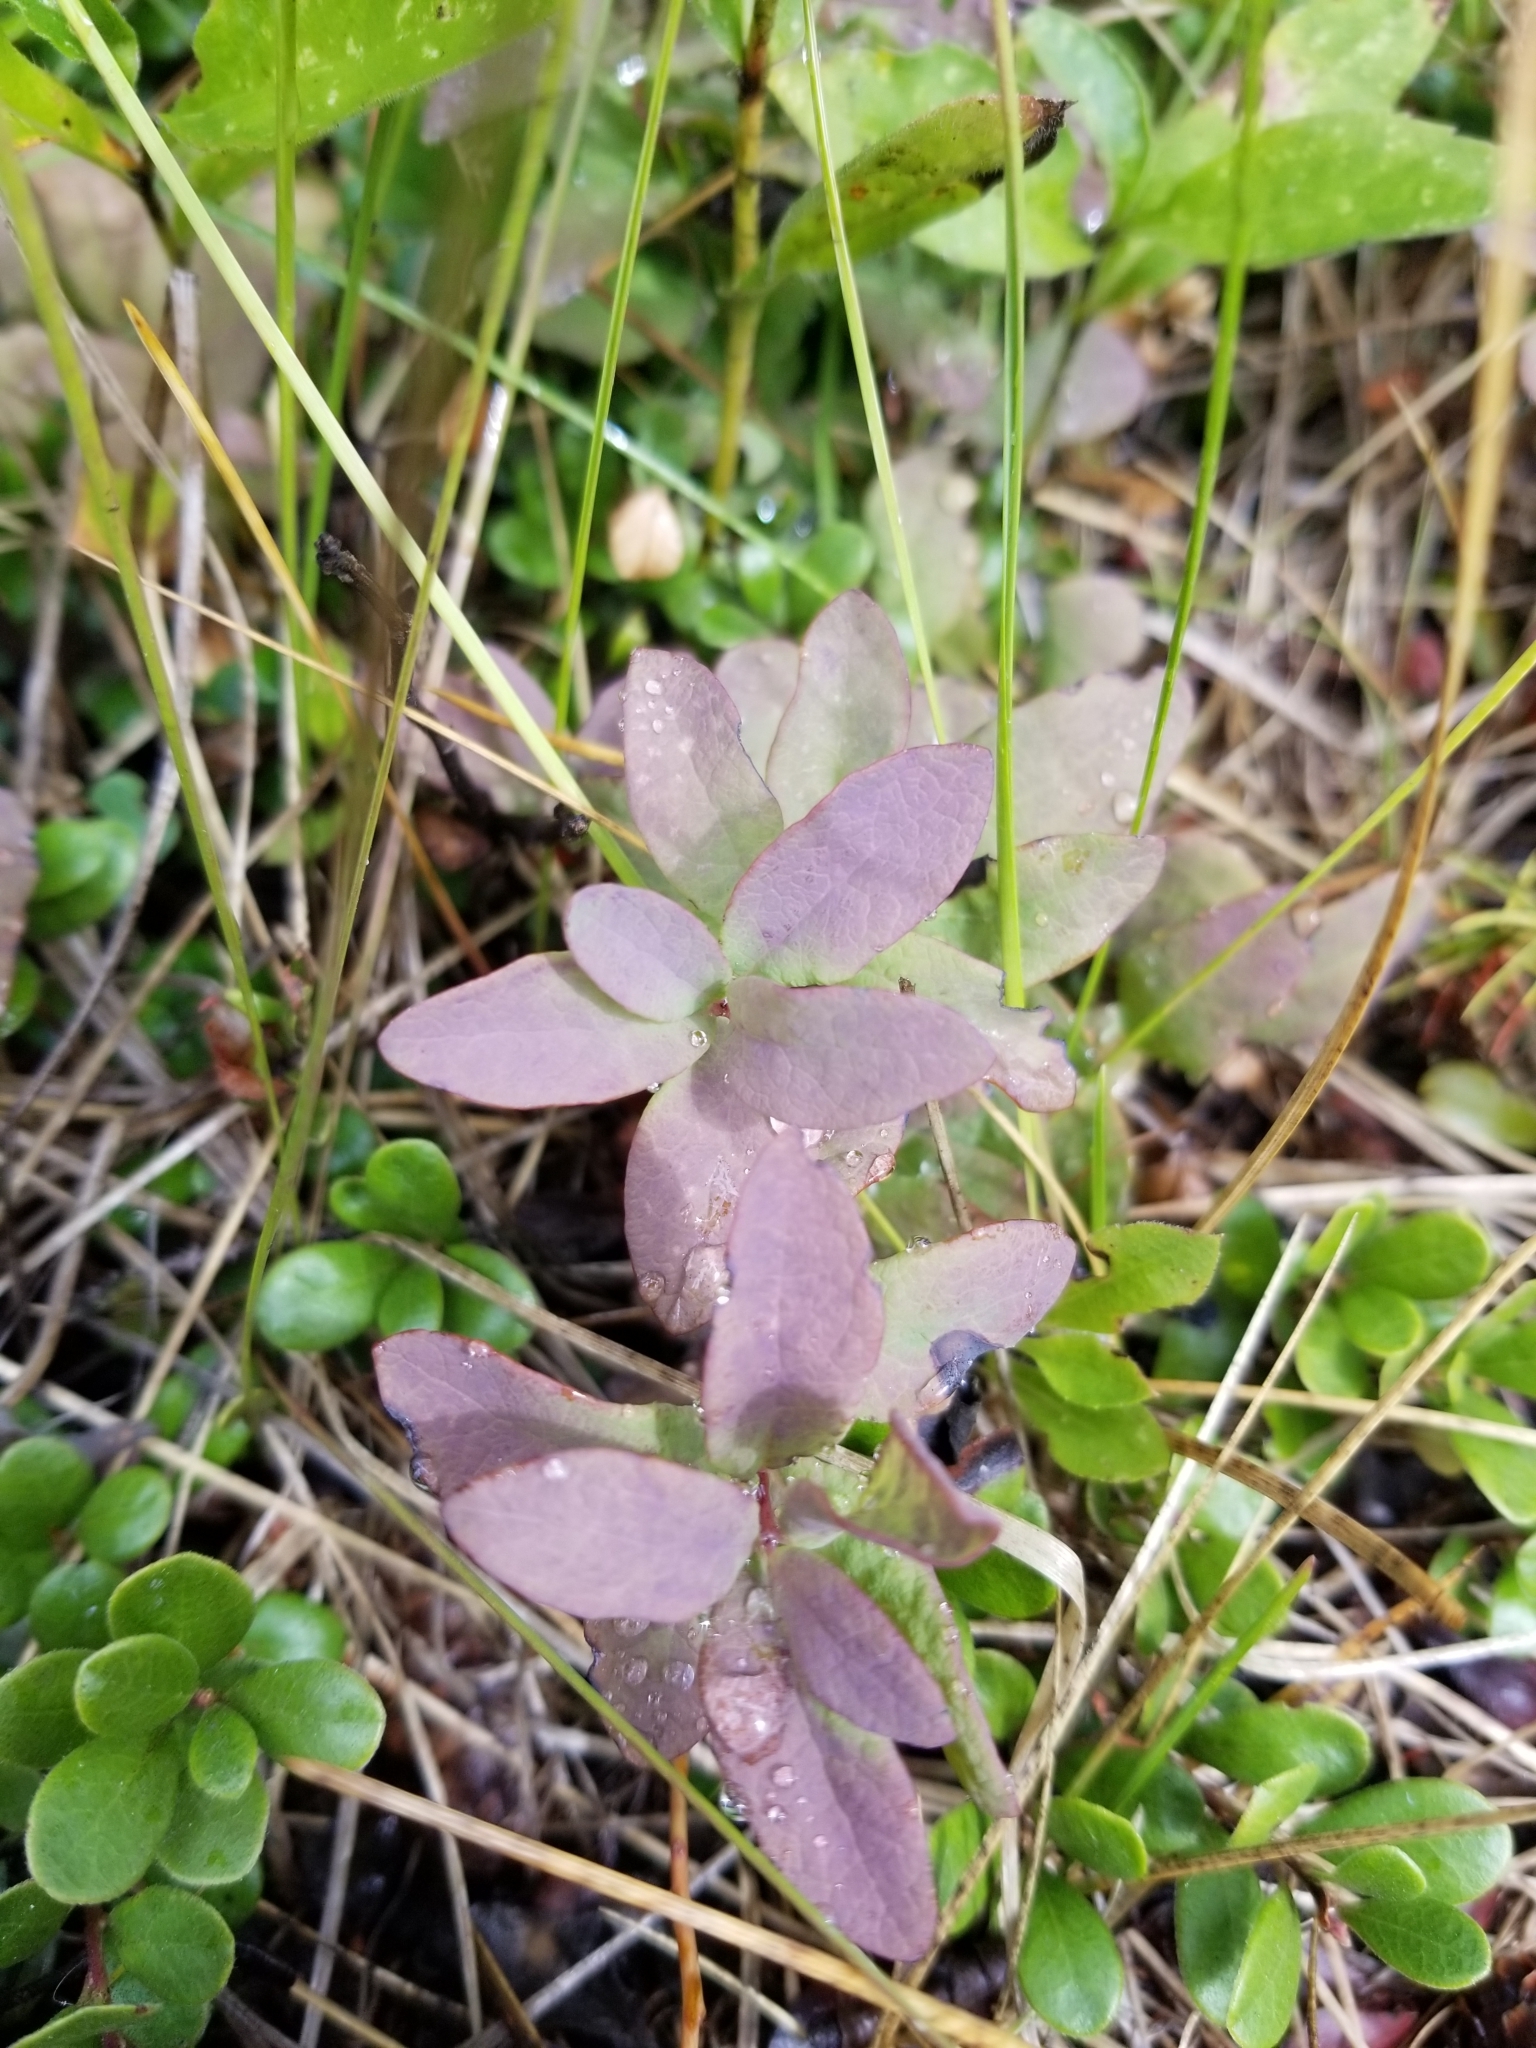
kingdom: Plantae
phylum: Tracheophyta
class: Magnoliopsida
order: Santalales
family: Comandraceae
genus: Geocaulon
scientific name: Geocaulon lividum
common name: Earthberry
